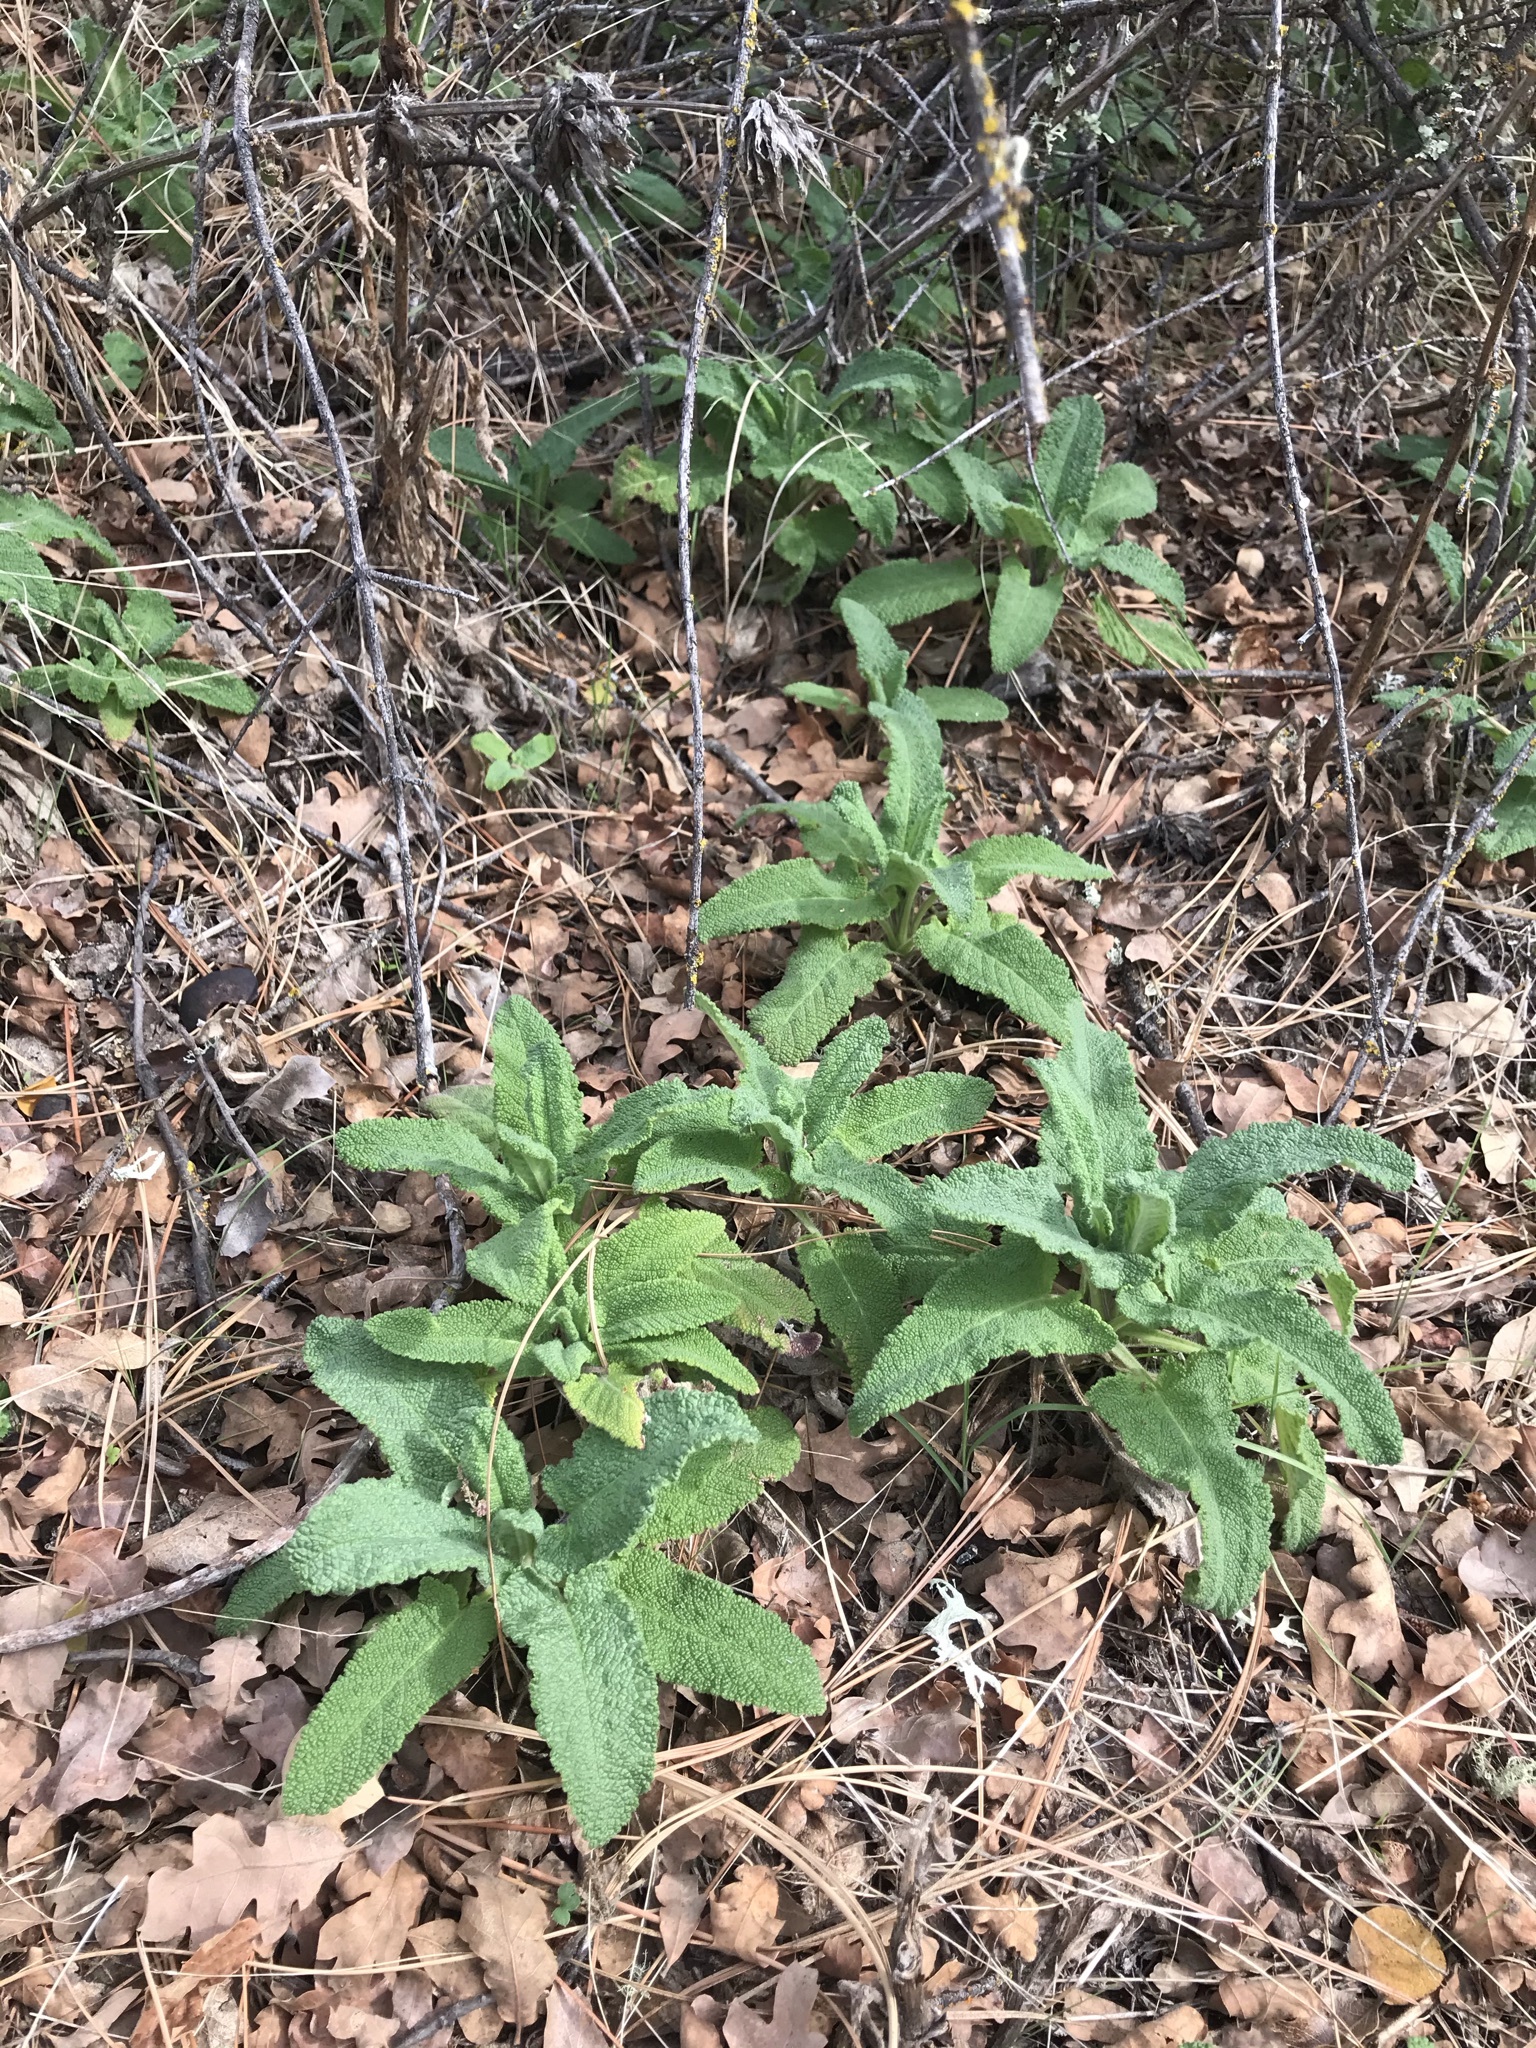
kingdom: Plantae
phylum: Tracheophyta
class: Magnoliopsida
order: Lamiales
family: Lamiaceae
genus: Salvia
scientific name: Salvia spathacea
